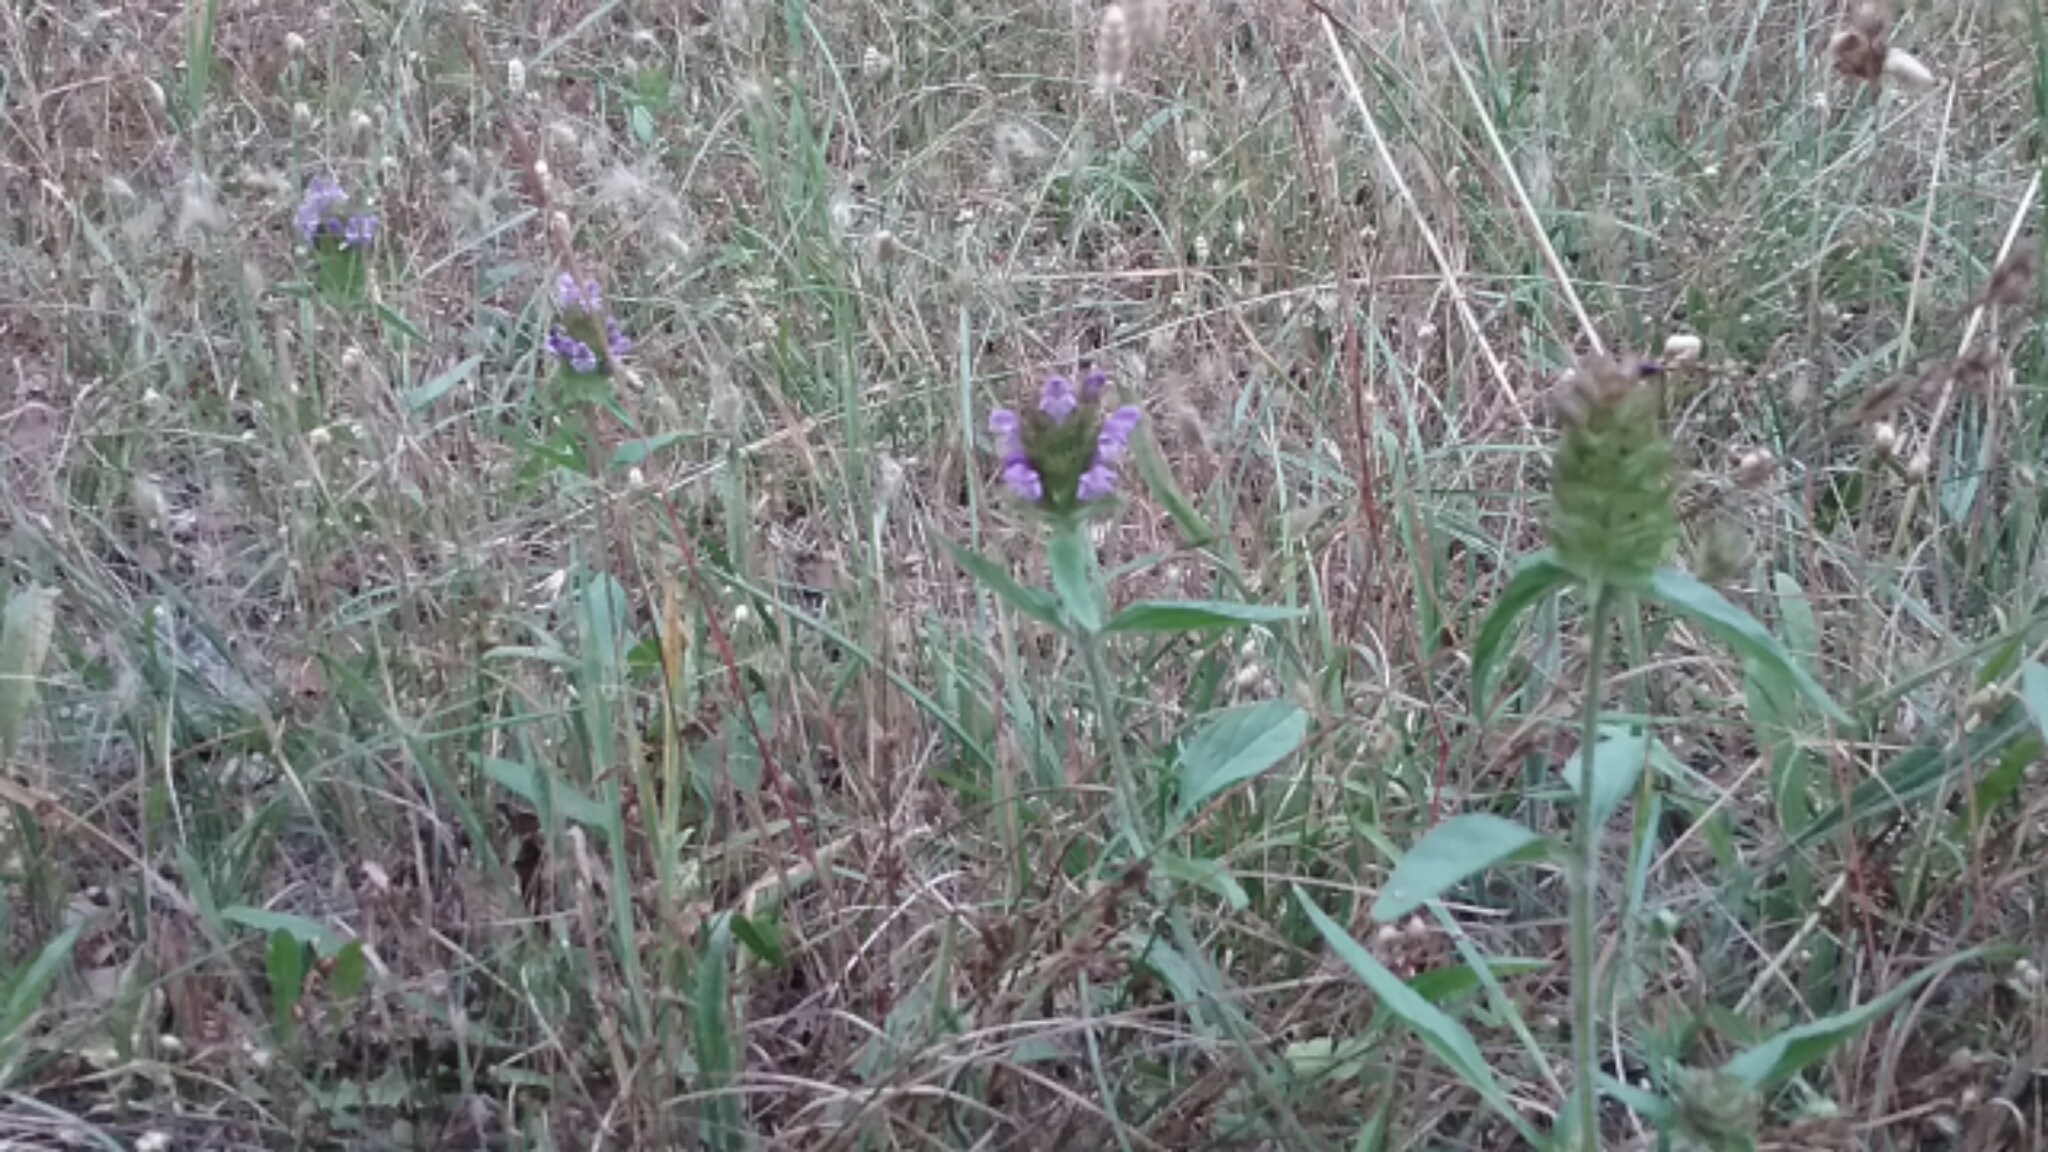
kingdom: Plantae
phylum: Tracheophyta
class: Magnoliopsida
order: Lamiales
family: Lamiaceae
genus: Prunella
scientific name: Prunella vulgaris
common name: Heal-all
